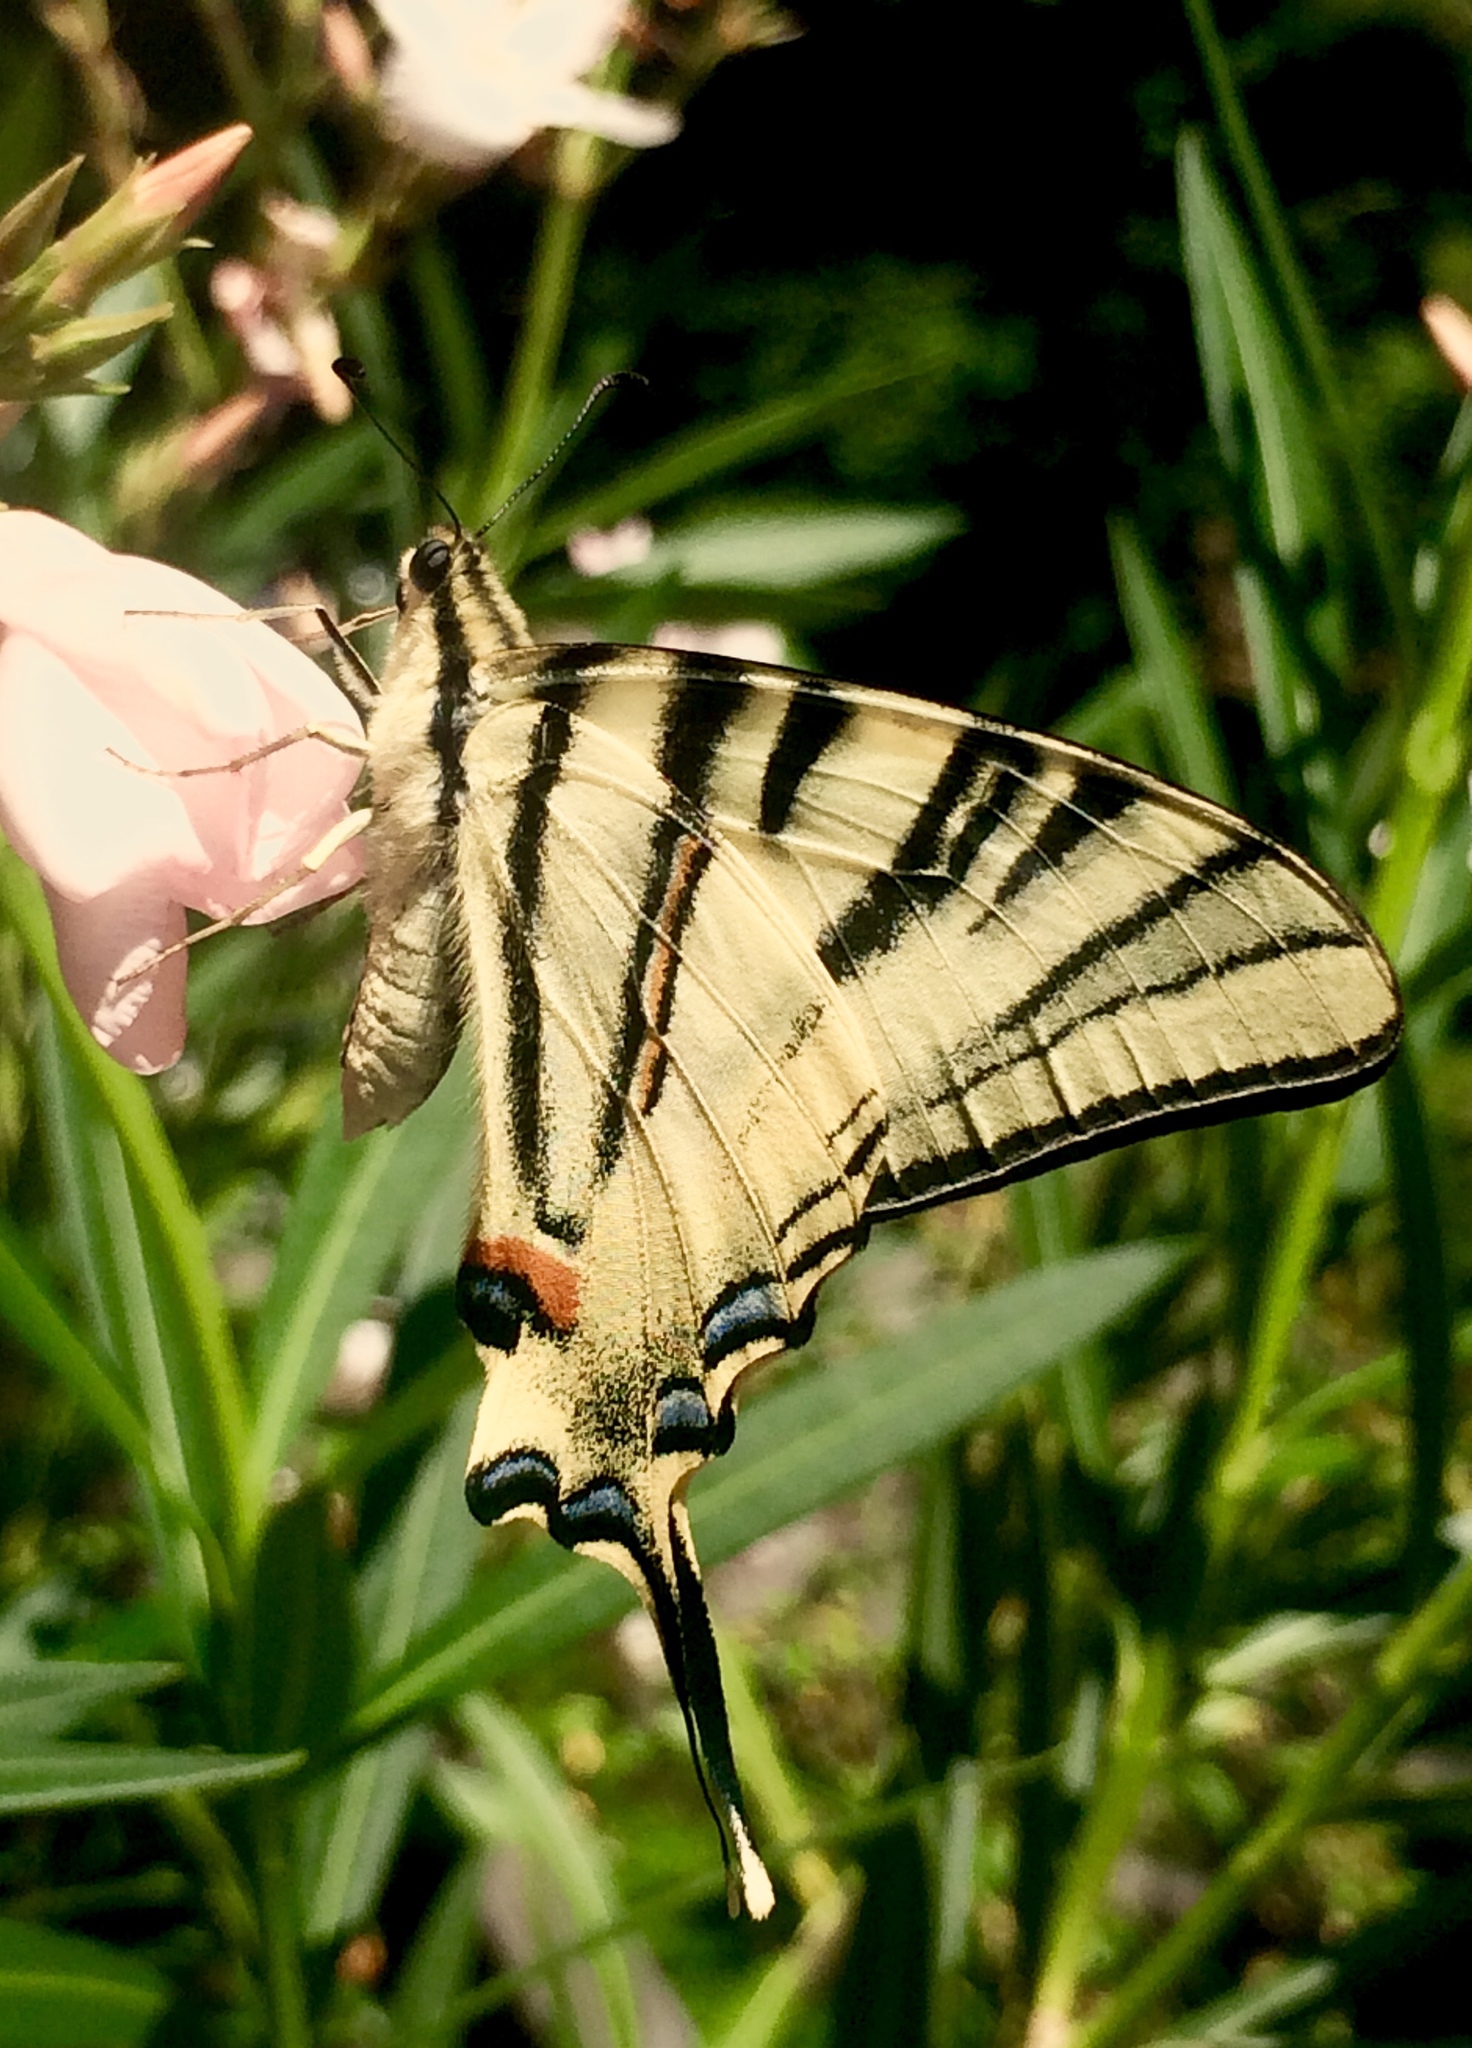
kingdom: Animalia
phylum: Arthropoda
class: Insecta
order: Lepidoptera
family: Papilionidae
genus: Iphiclides
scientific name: Iphiclides podalirius
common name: Scarce swallowtail
